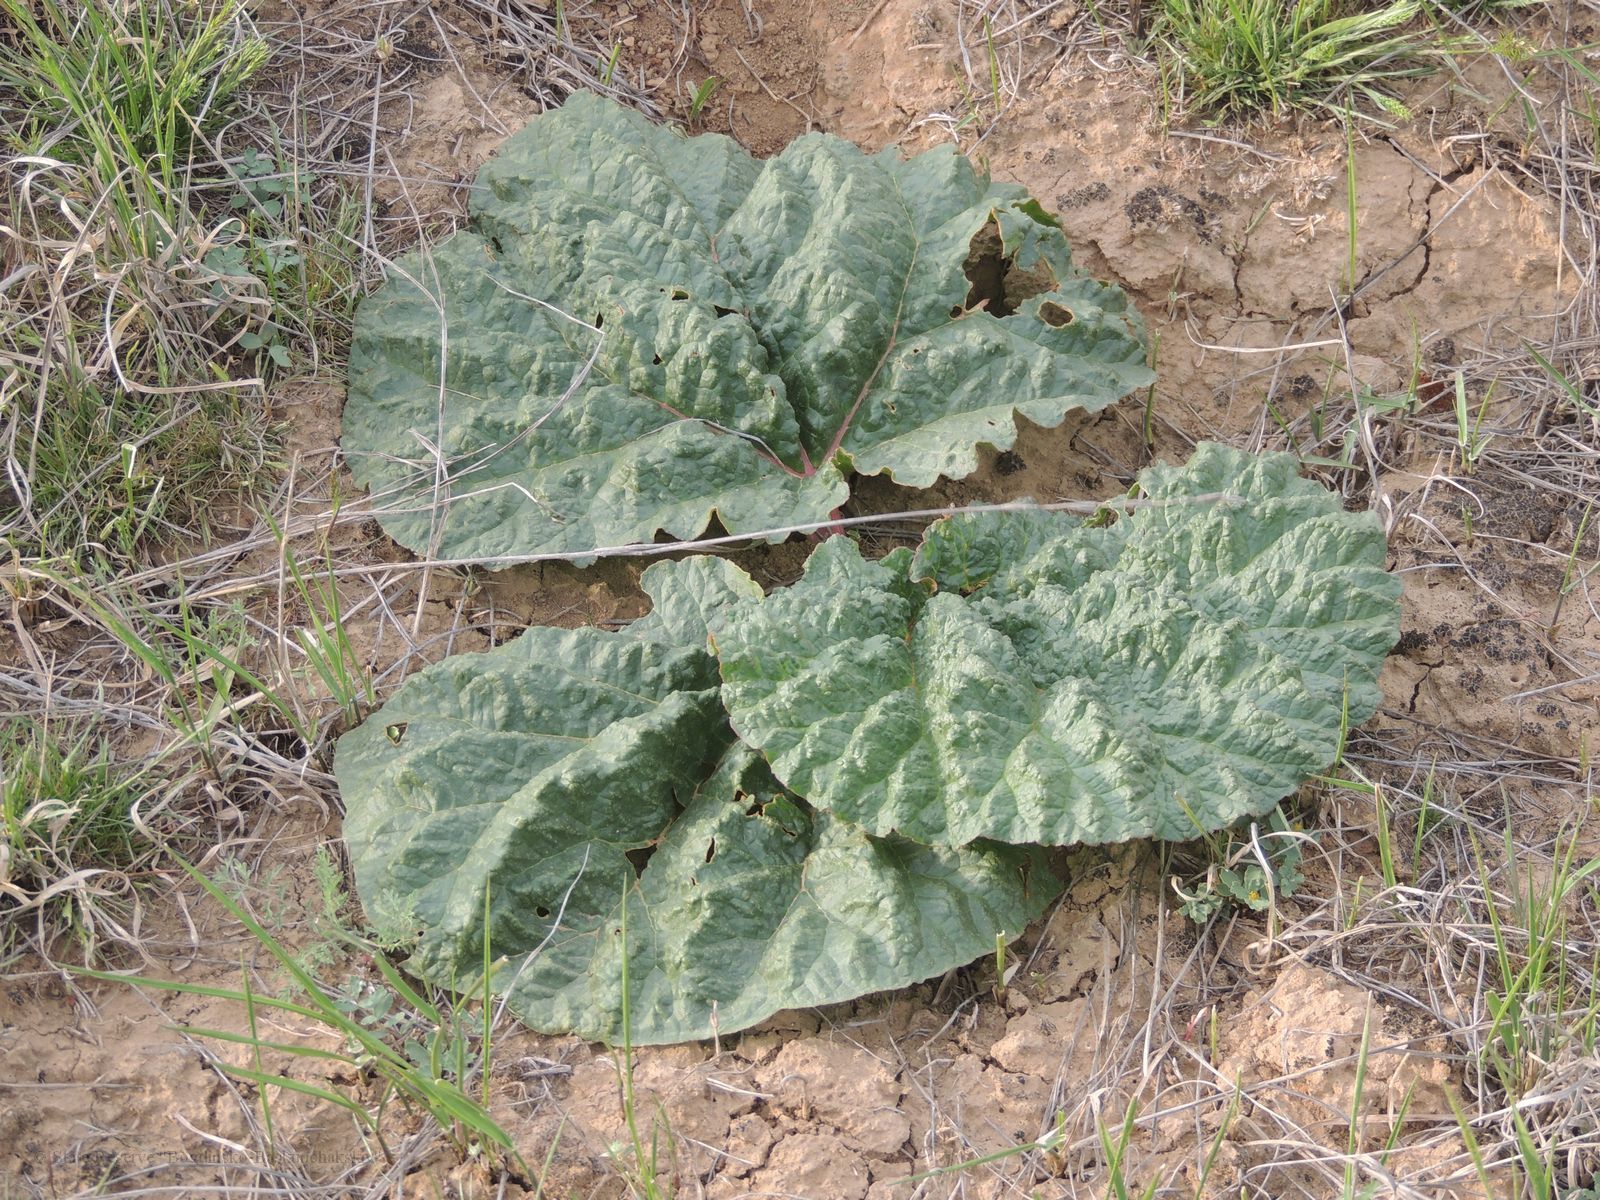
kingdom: Plantae
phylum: Tracheophyta
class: Magnoliopsida
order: Caryophyllales
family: Polygonaceae
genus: Rheum
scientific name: Rheum tataricum
